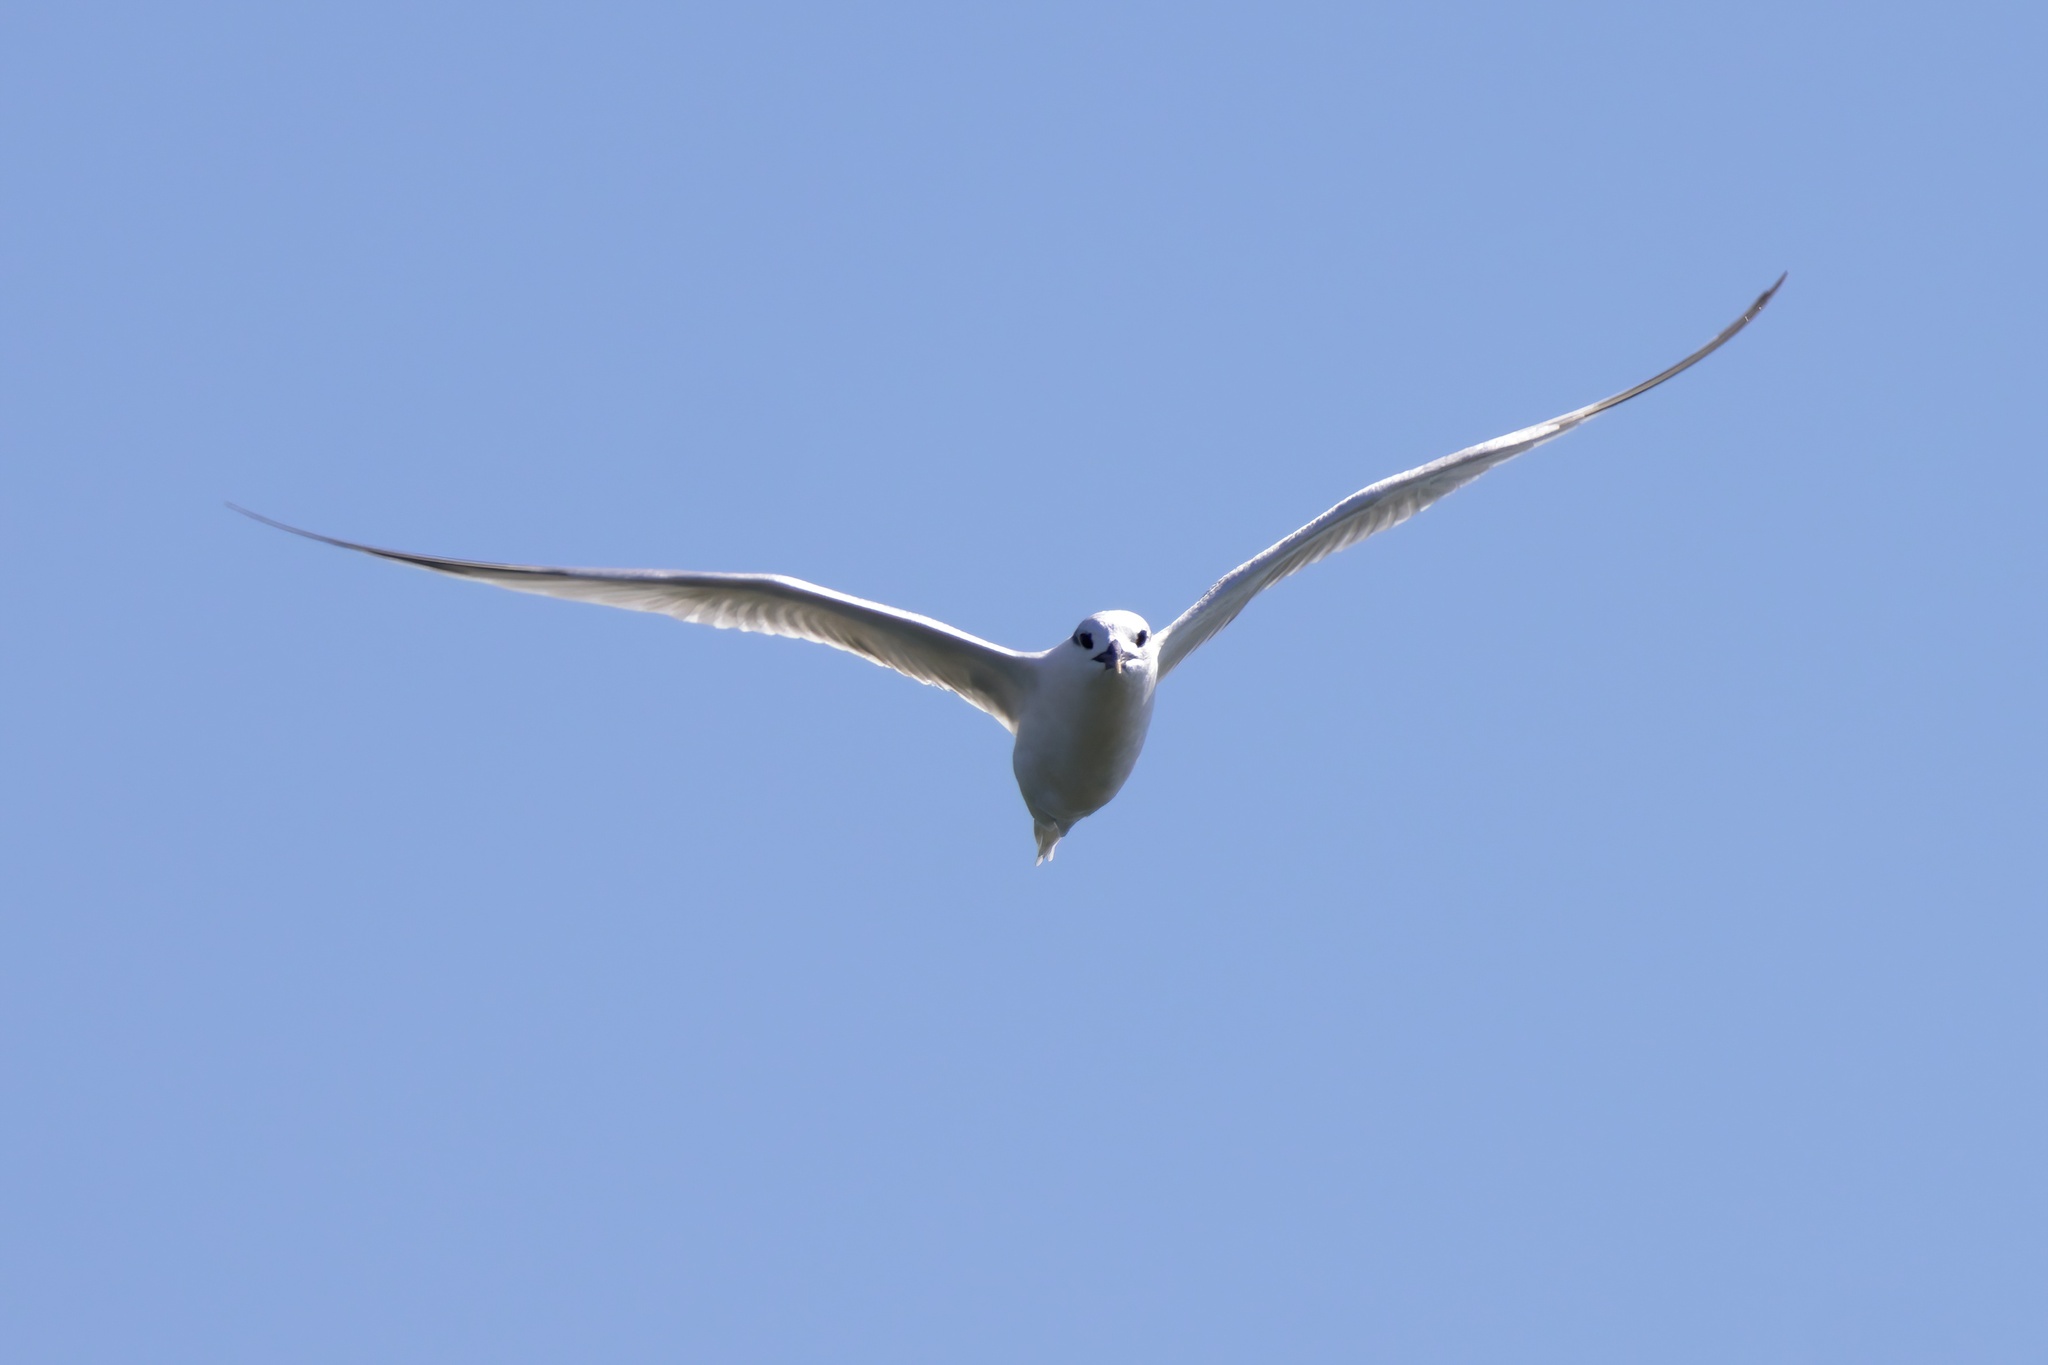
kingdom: Animalia
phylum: Chordata
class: Aves
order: Charadriiformes
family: Laridae
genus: Thalasseus
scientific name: Thalasseus sandvicensis
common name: Sandwich tern
